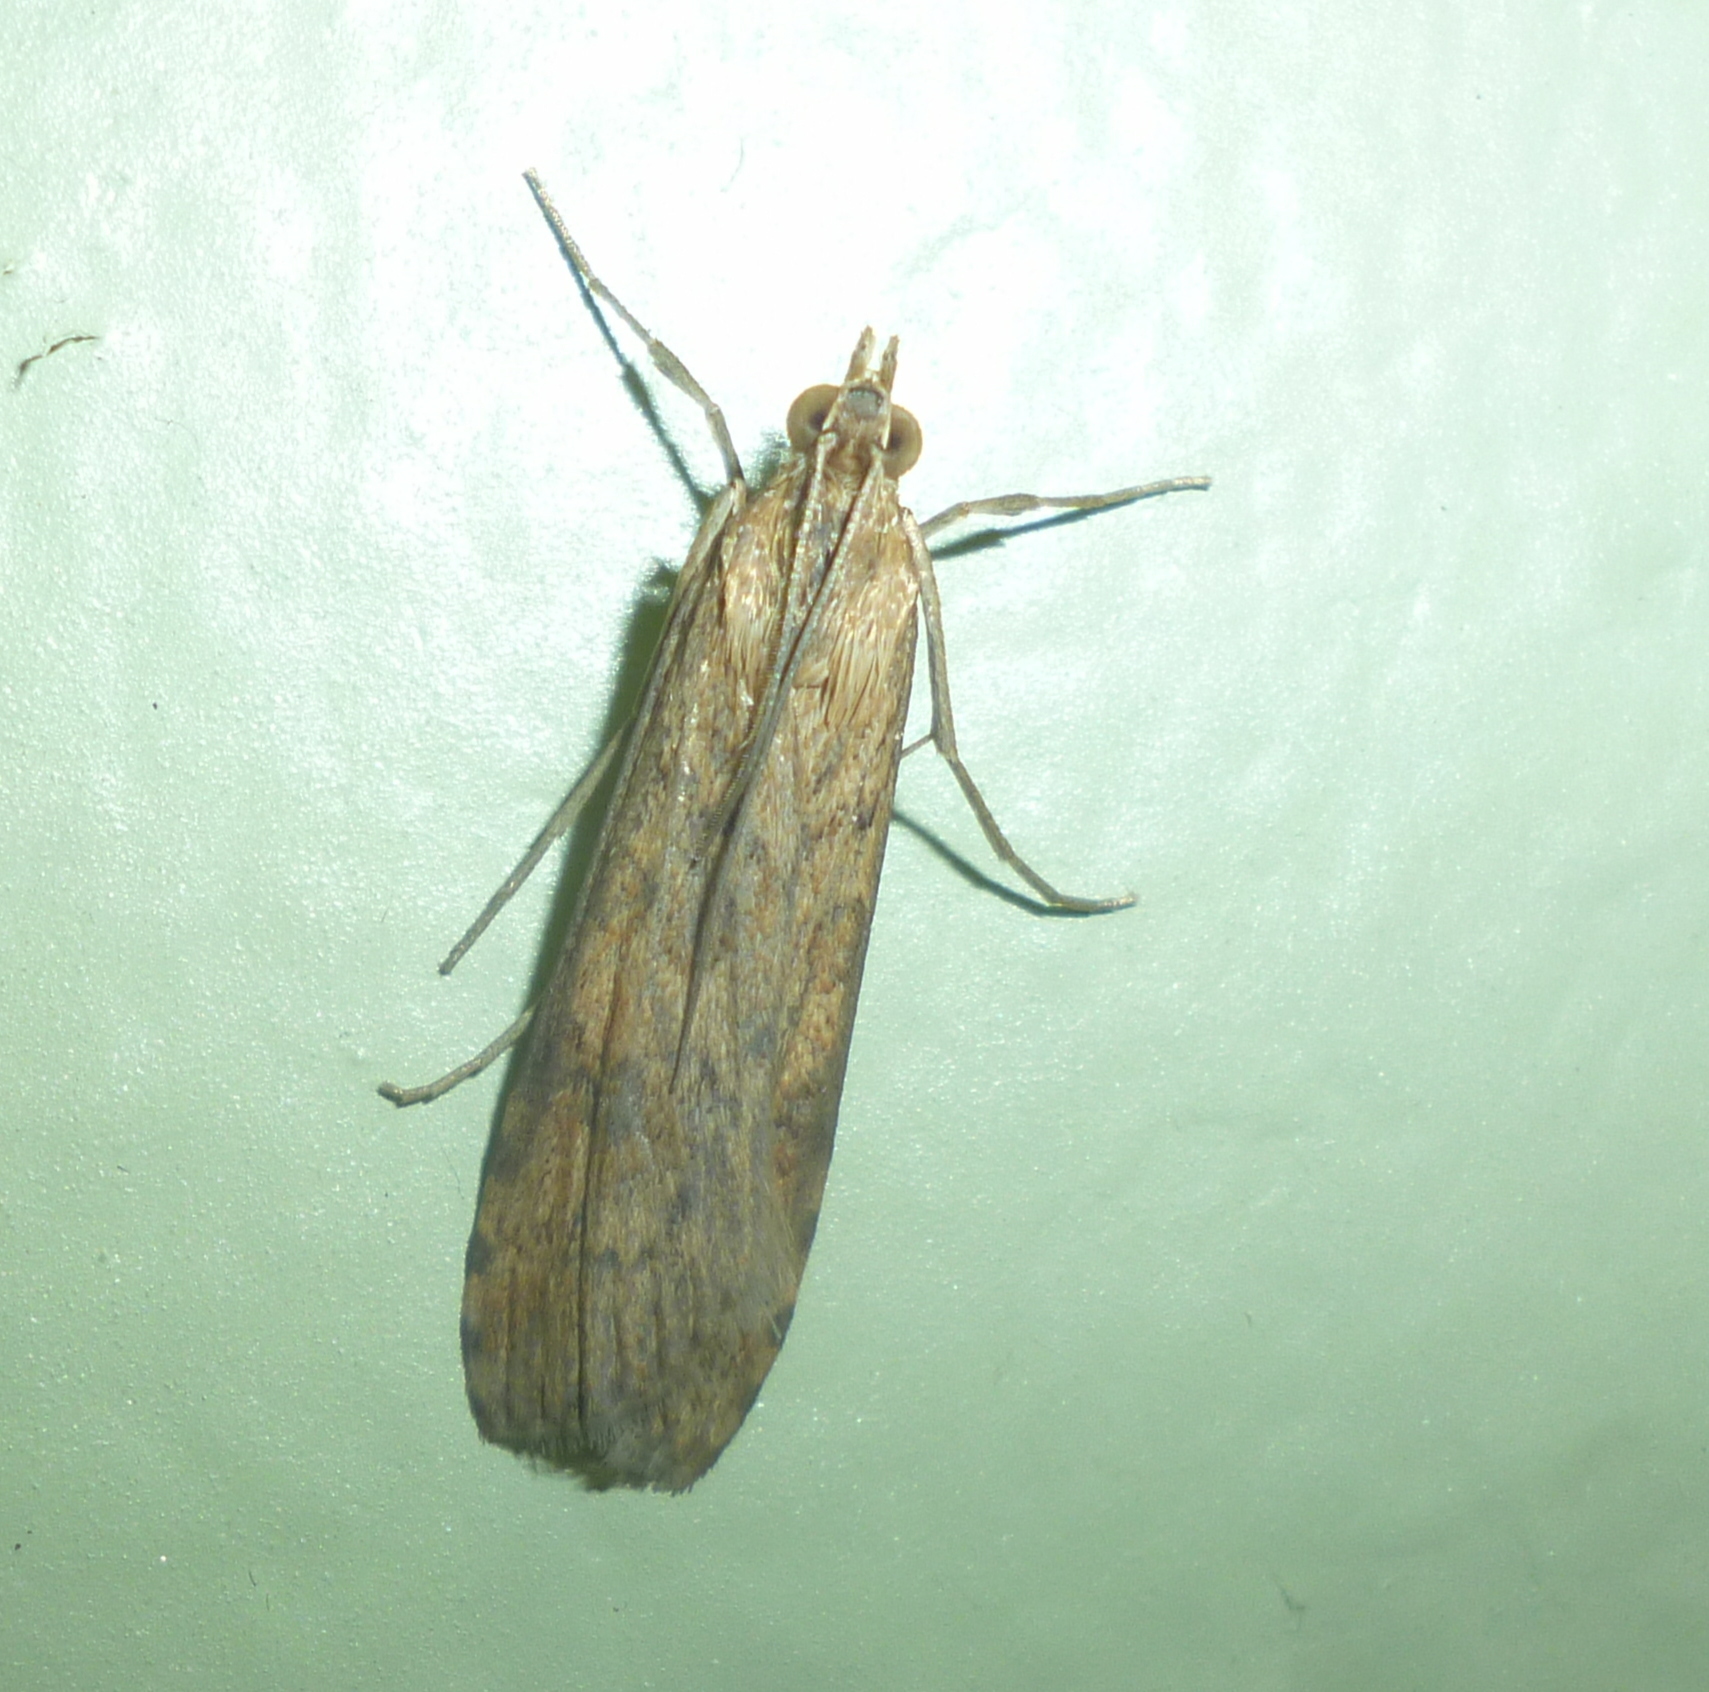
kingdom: Animalia
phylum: Arthropoda
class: Insecta
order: Lepidoptera
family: Crambidae
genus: Nomophila
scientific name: Nomophila nearctica
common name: American rush veneer
